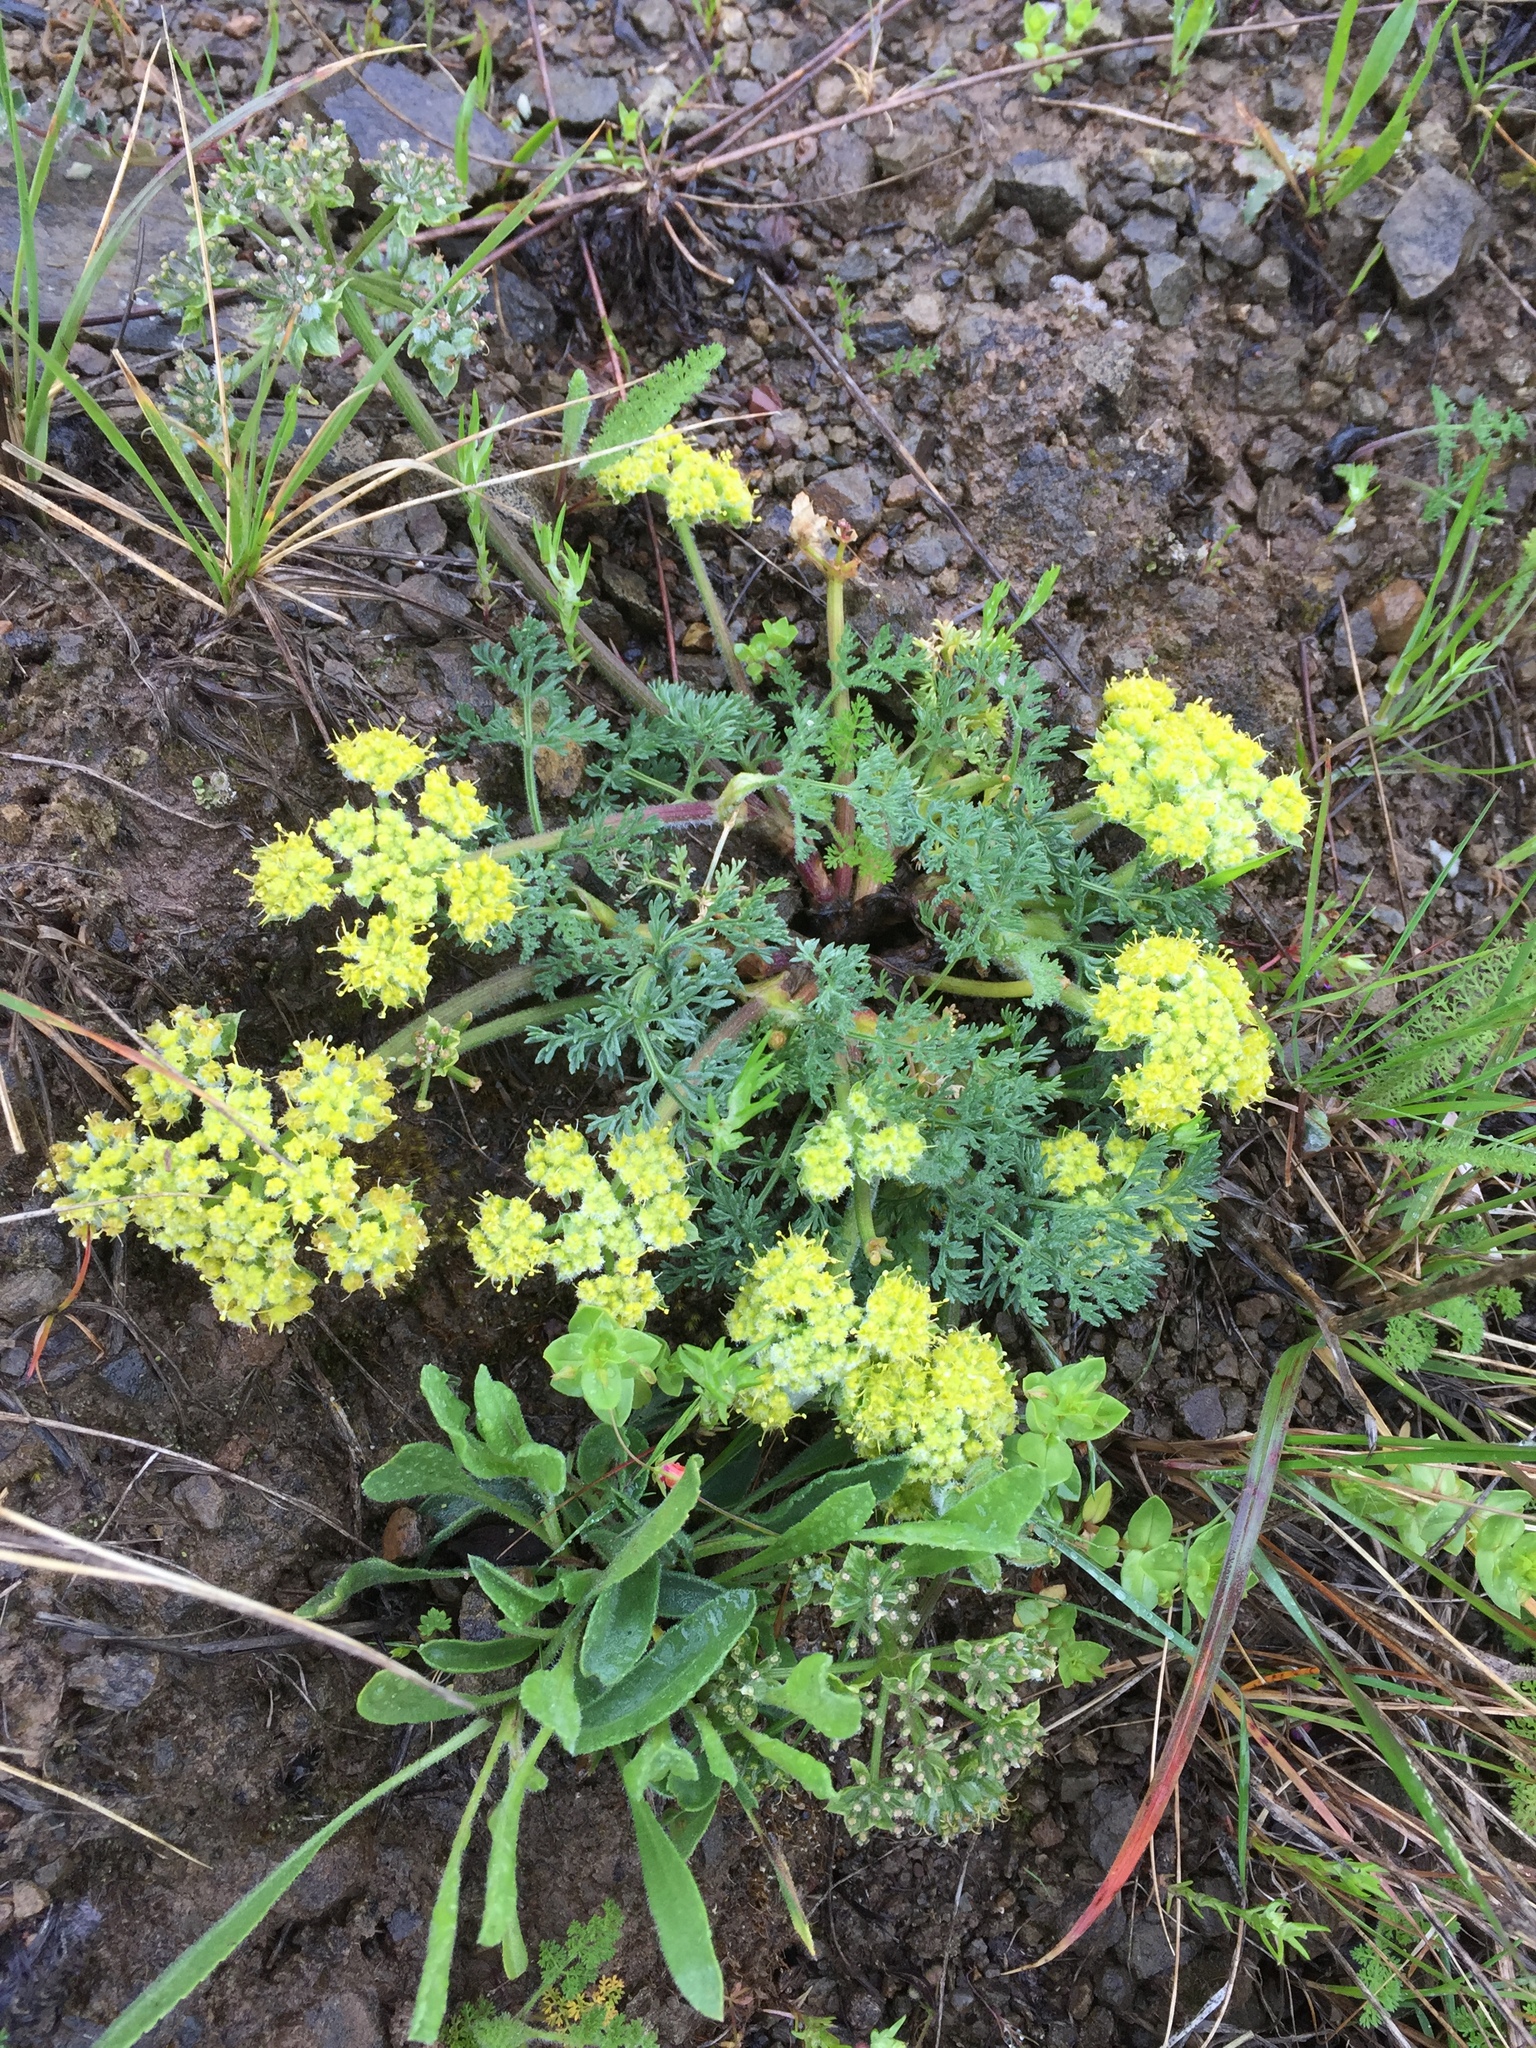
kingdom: Plantae
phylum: Tracheophyta
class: Magnoliopsida
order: Apiales
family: Apiaceae
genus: Lomatium
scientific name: Lomatium dasycarpum
